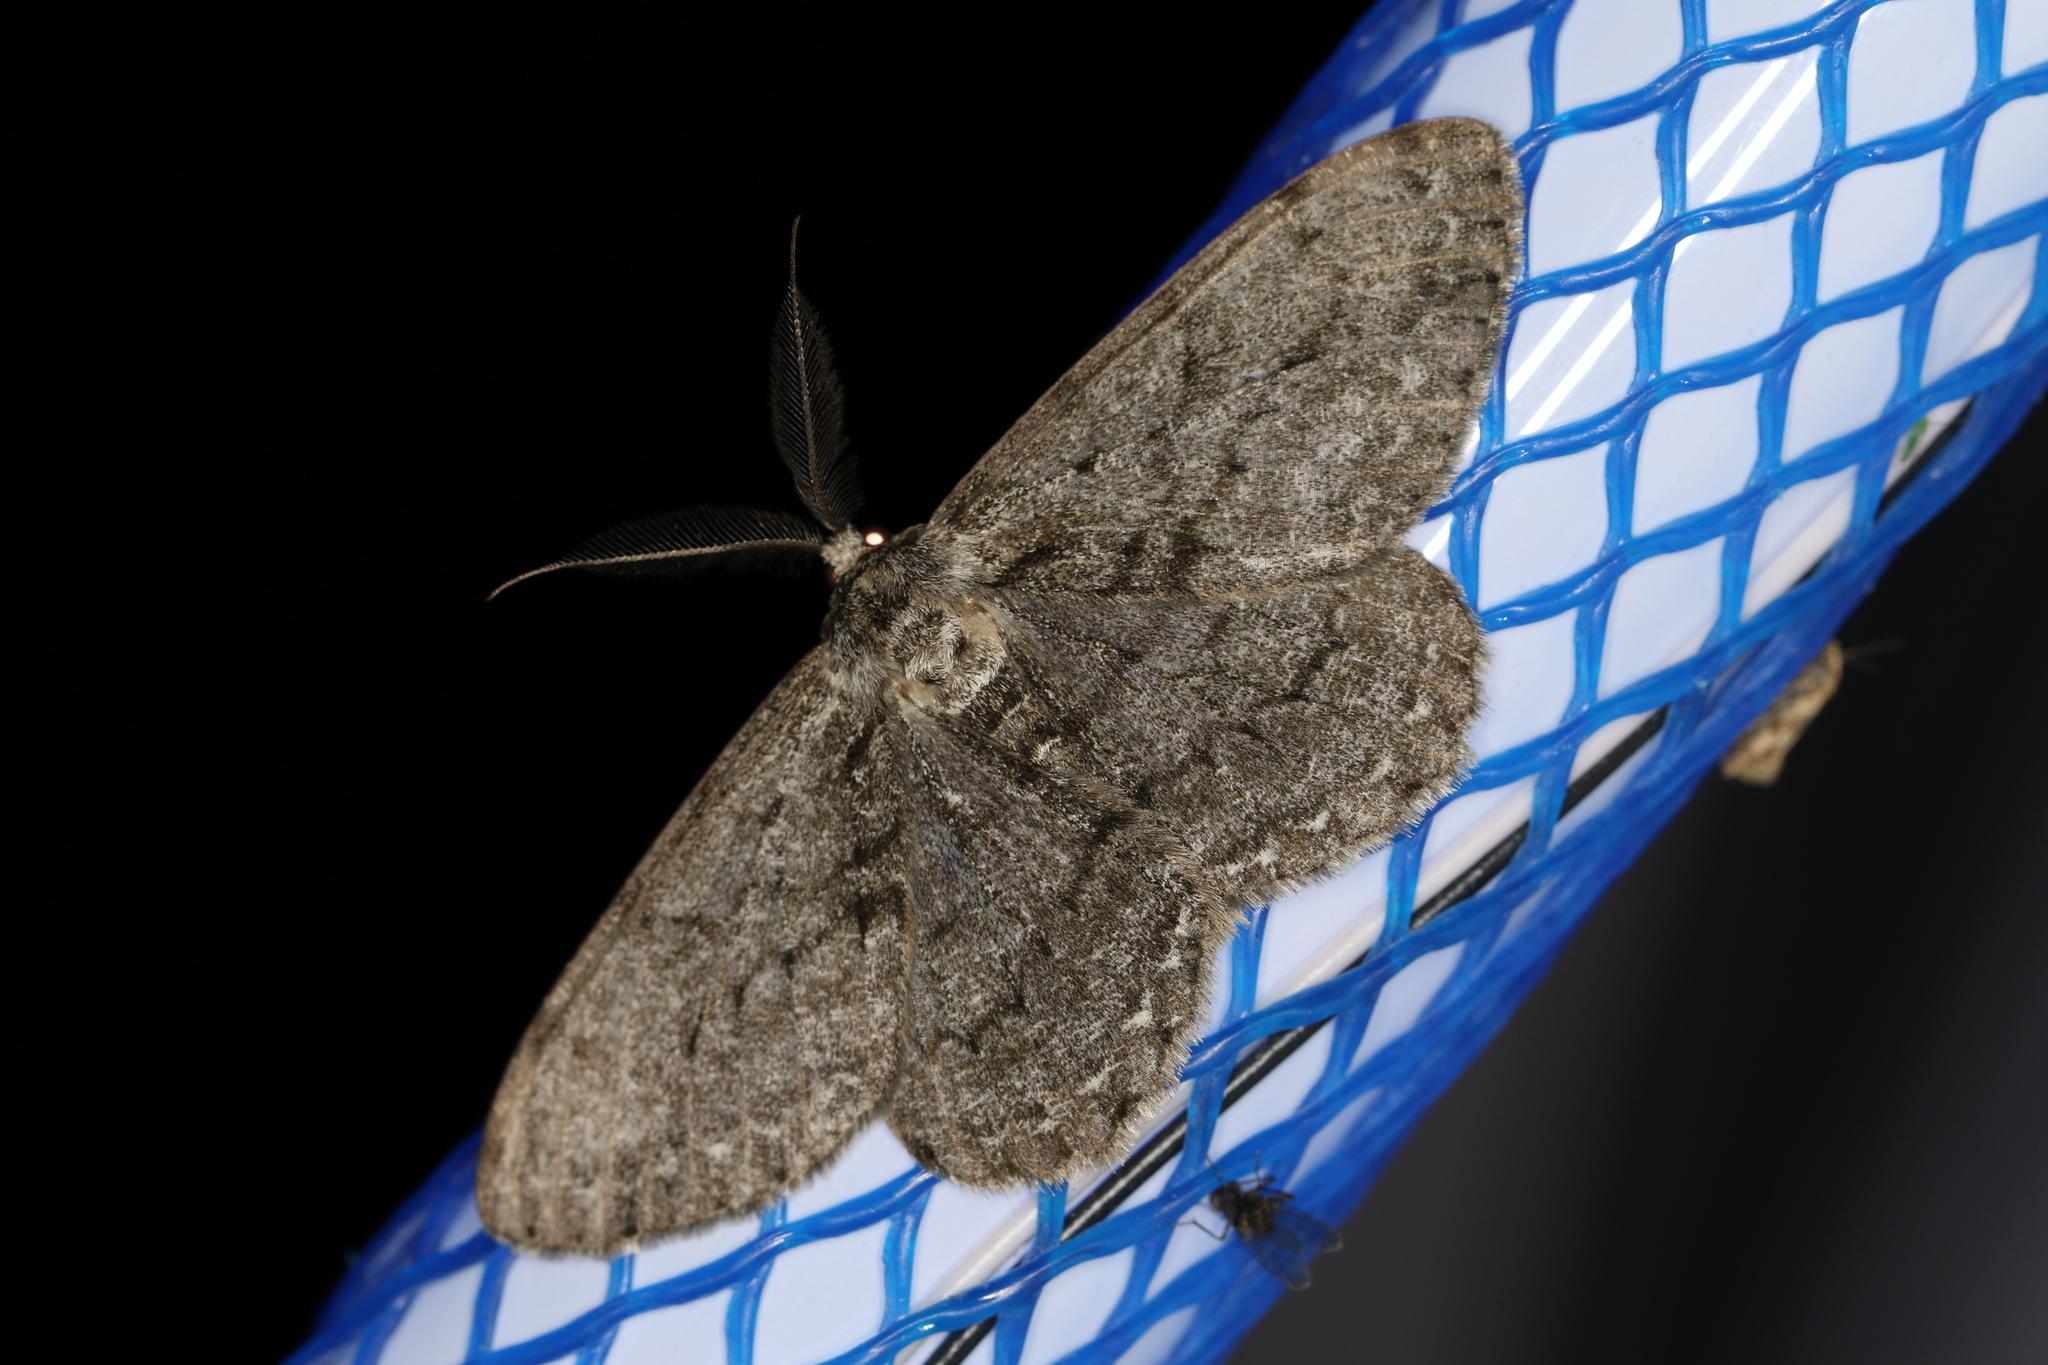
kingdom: Animalia
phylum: Arthropoda
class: Insecta
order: Lepidoptera
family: Geometridae
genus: Hypomecis
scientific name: Hypomecis roboraria
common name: Great oak beauty
